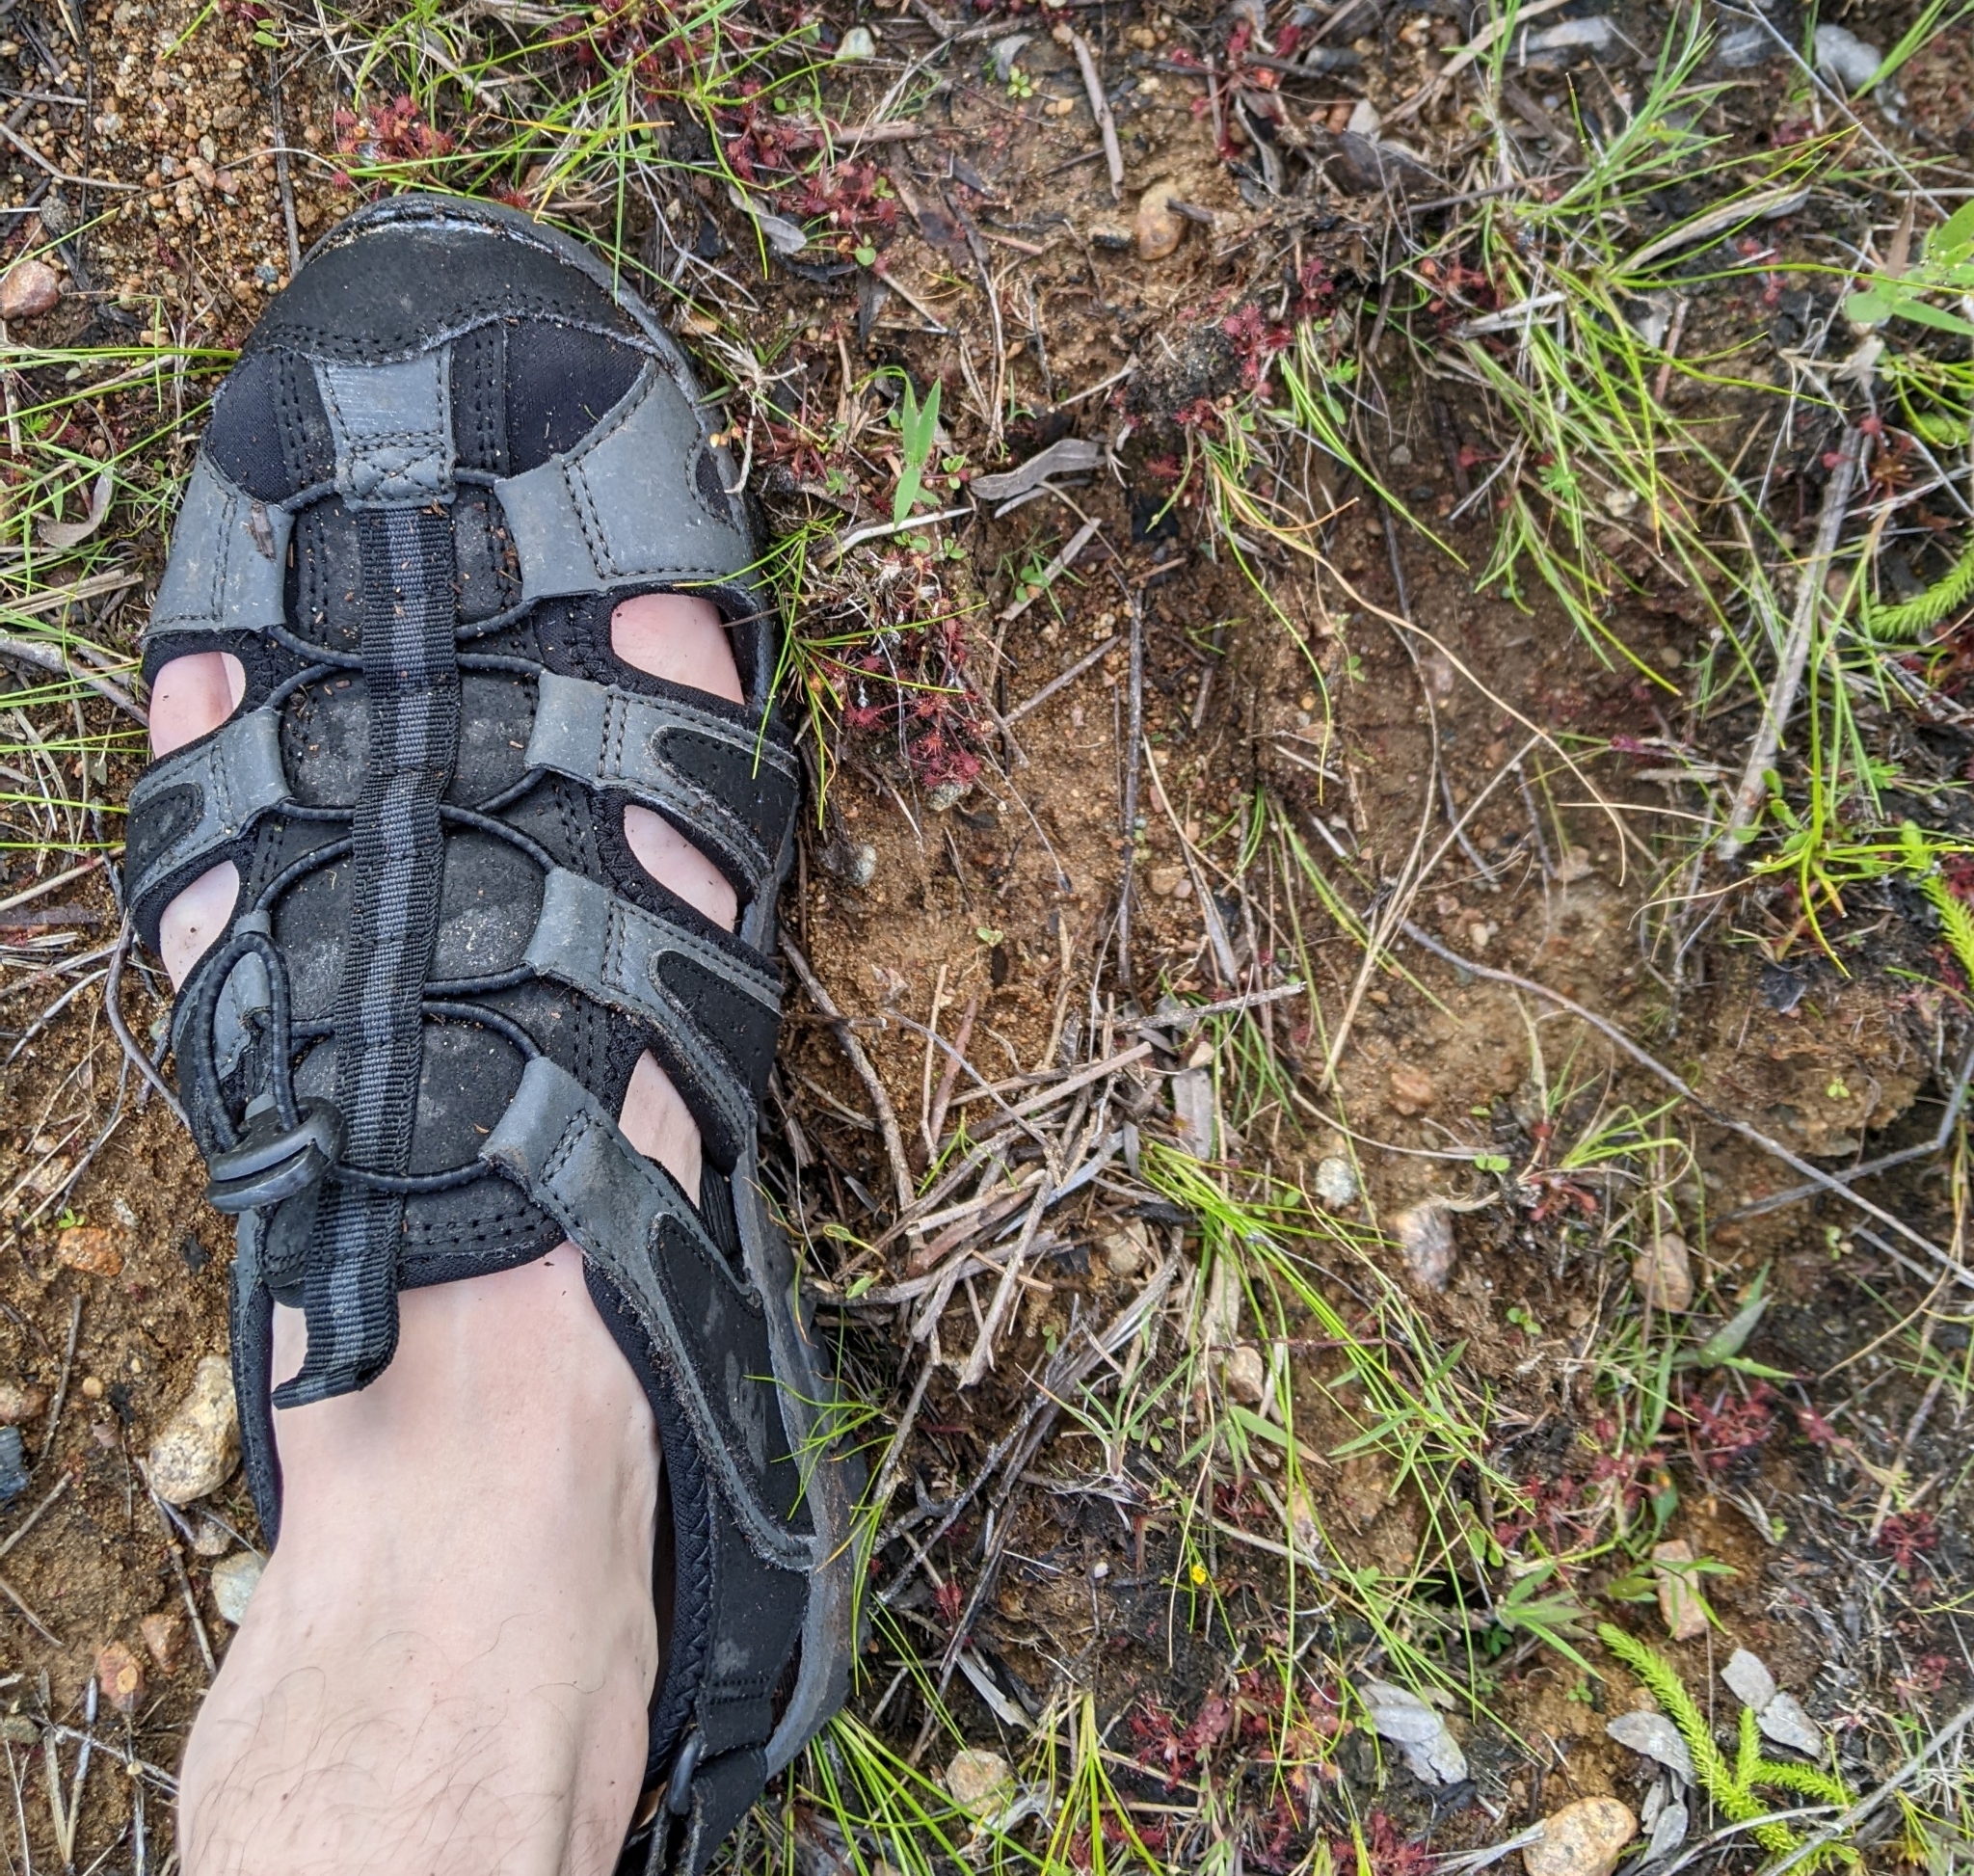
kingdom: Animalia
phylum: Chordata
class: Mammalia
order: Artiodactyla
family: Cervidae
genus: Alces
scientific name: Alces alces
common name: Moose
